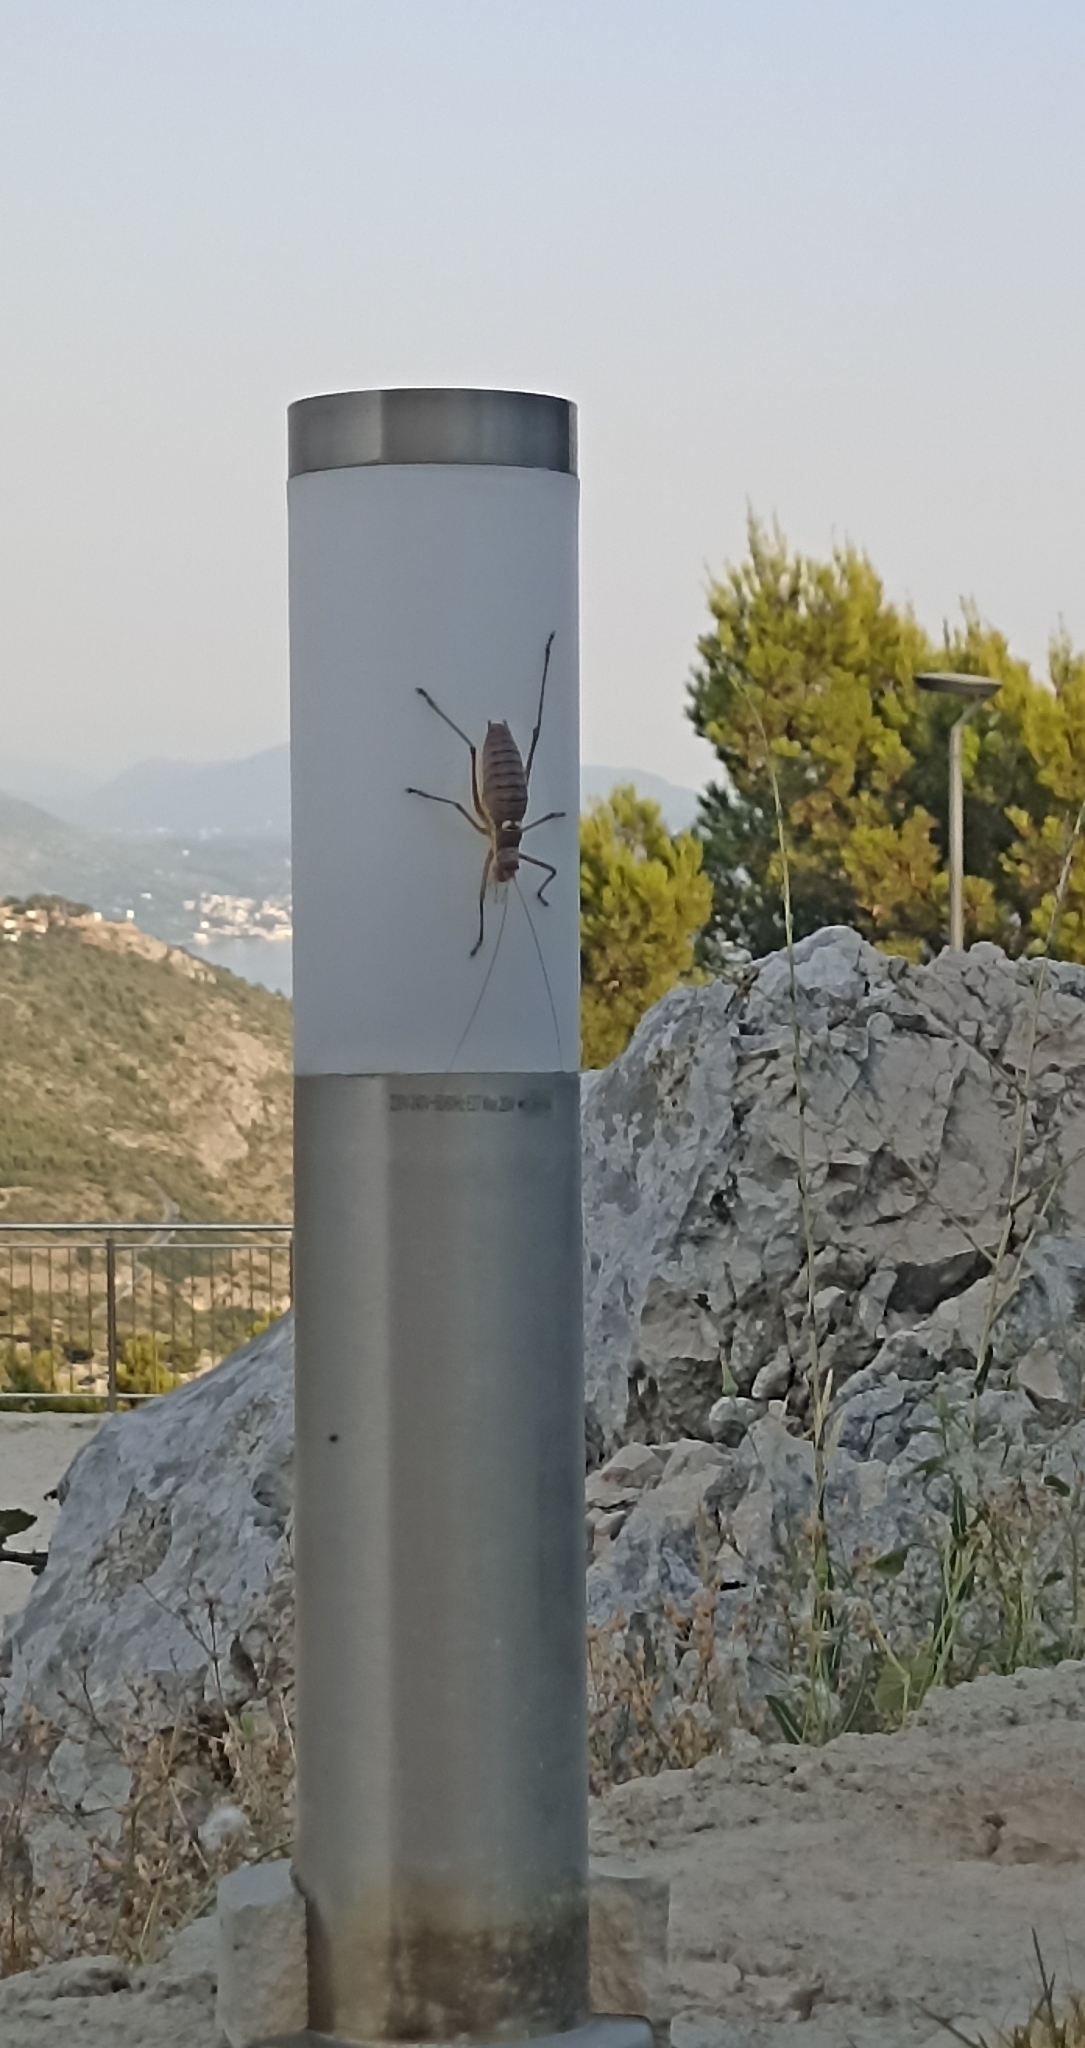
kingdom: Animalia
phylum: Arthropoda
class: Insecta
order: Orthoptera
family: Tettigoniidae
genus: Dinarippiger
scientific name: Dinarippiger discoidalis
